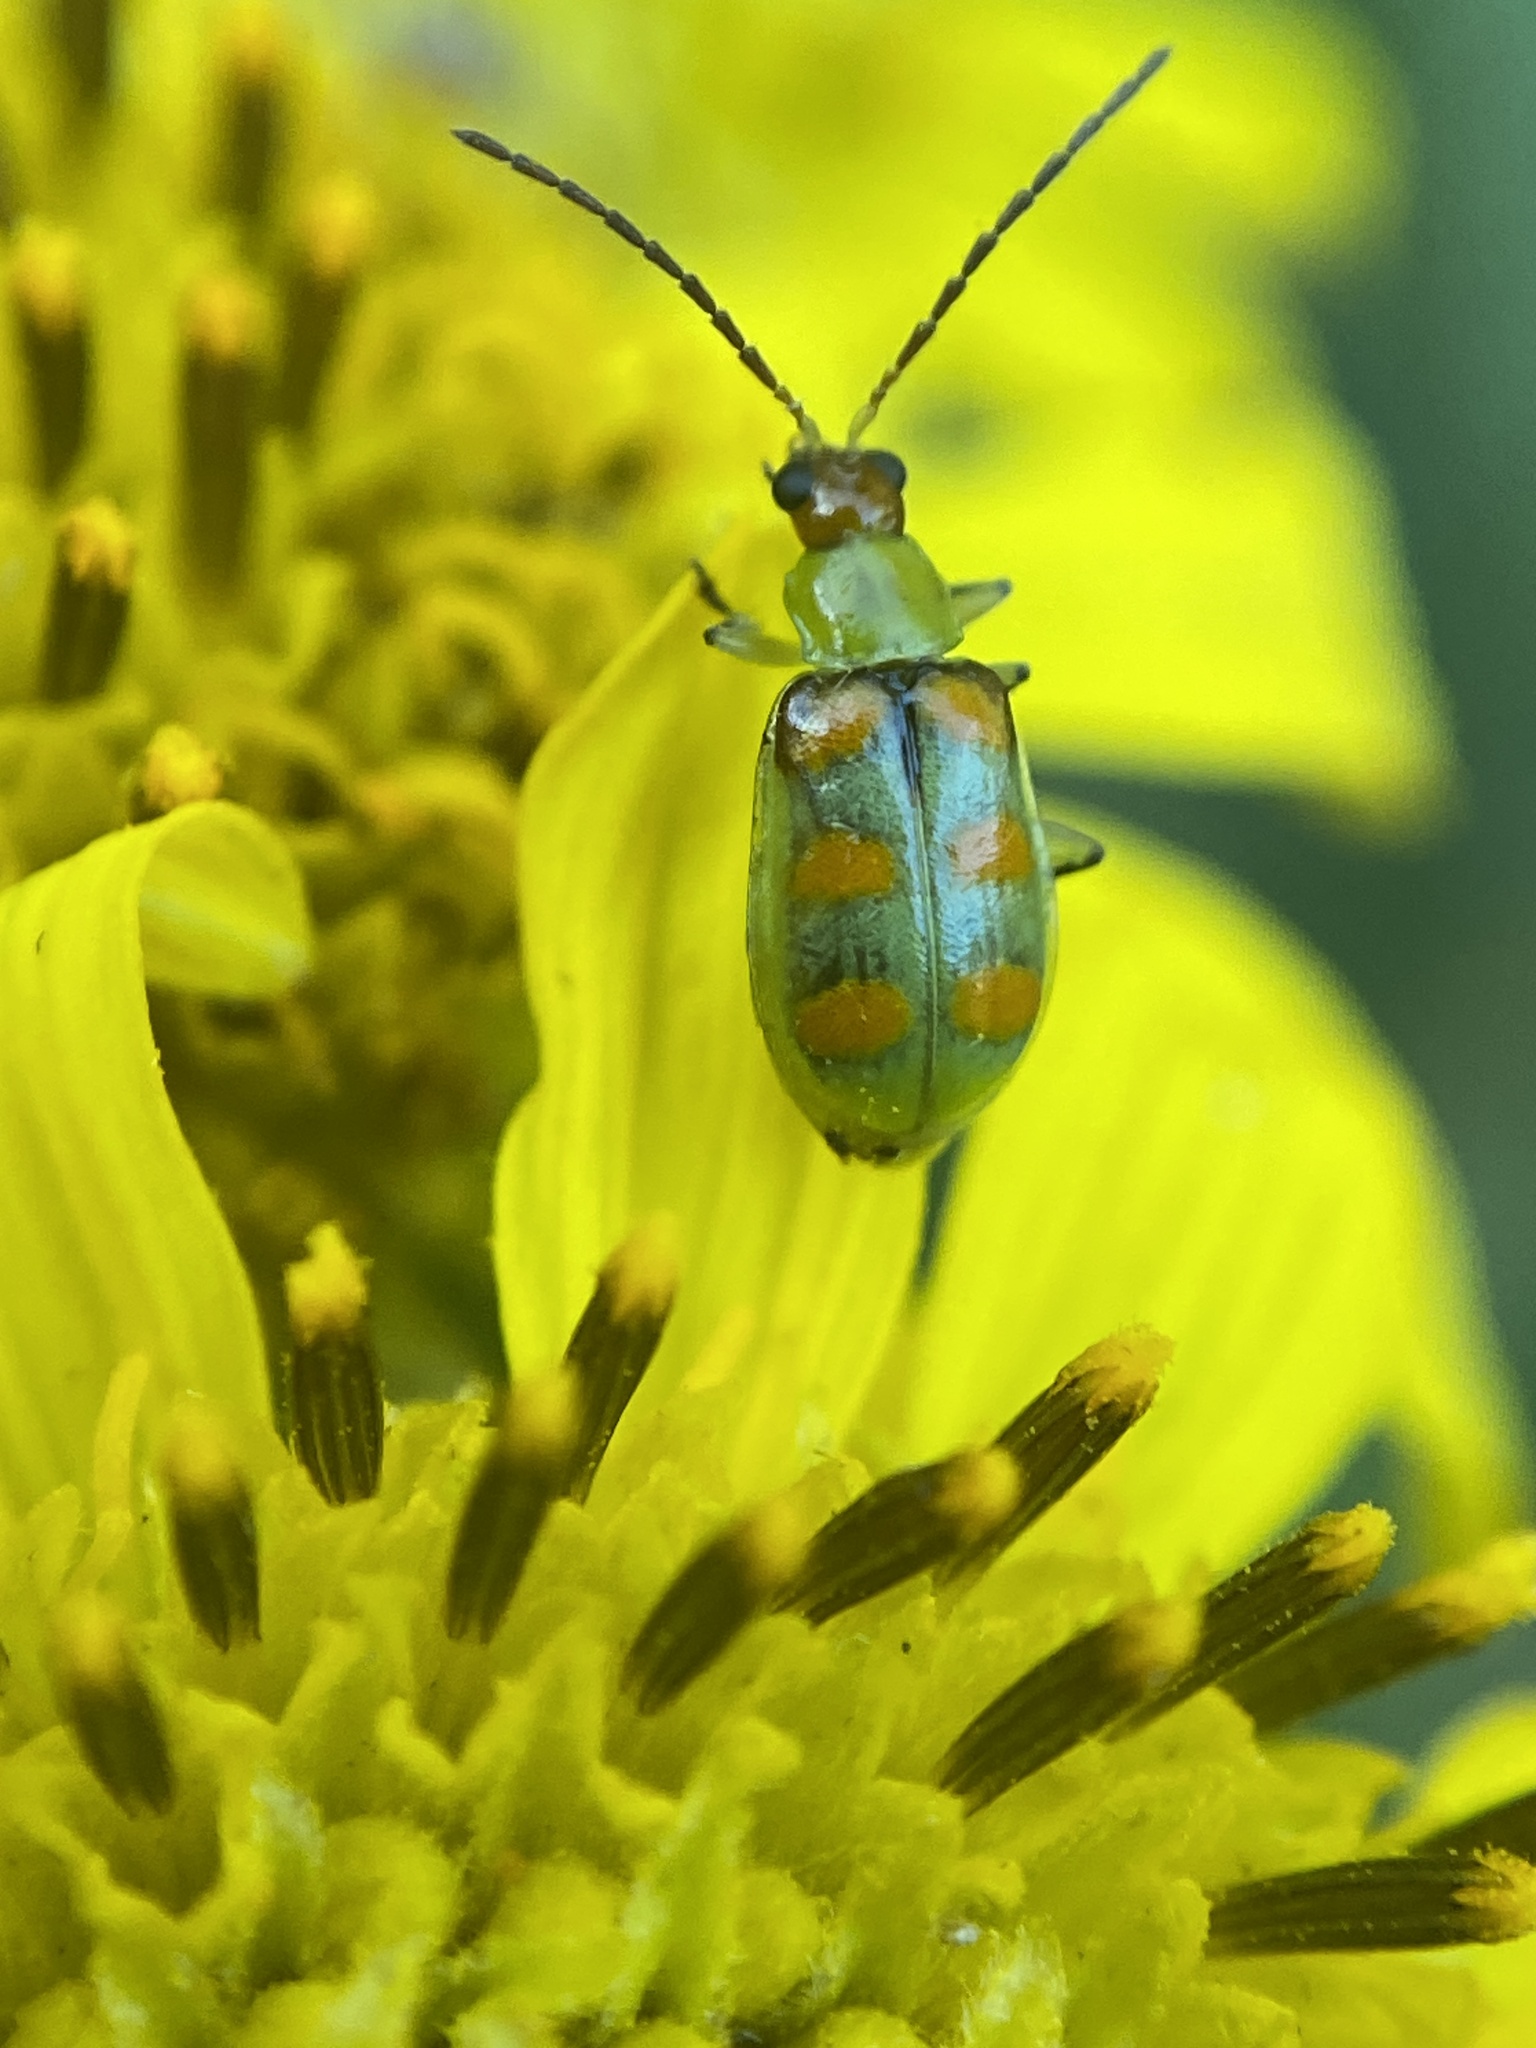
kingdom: Animalia
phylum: Arthropoda
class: Insecta
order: Coleoptera
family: Chrysomelidae
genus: Diabrotica
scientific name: Diabrotica speciosa
